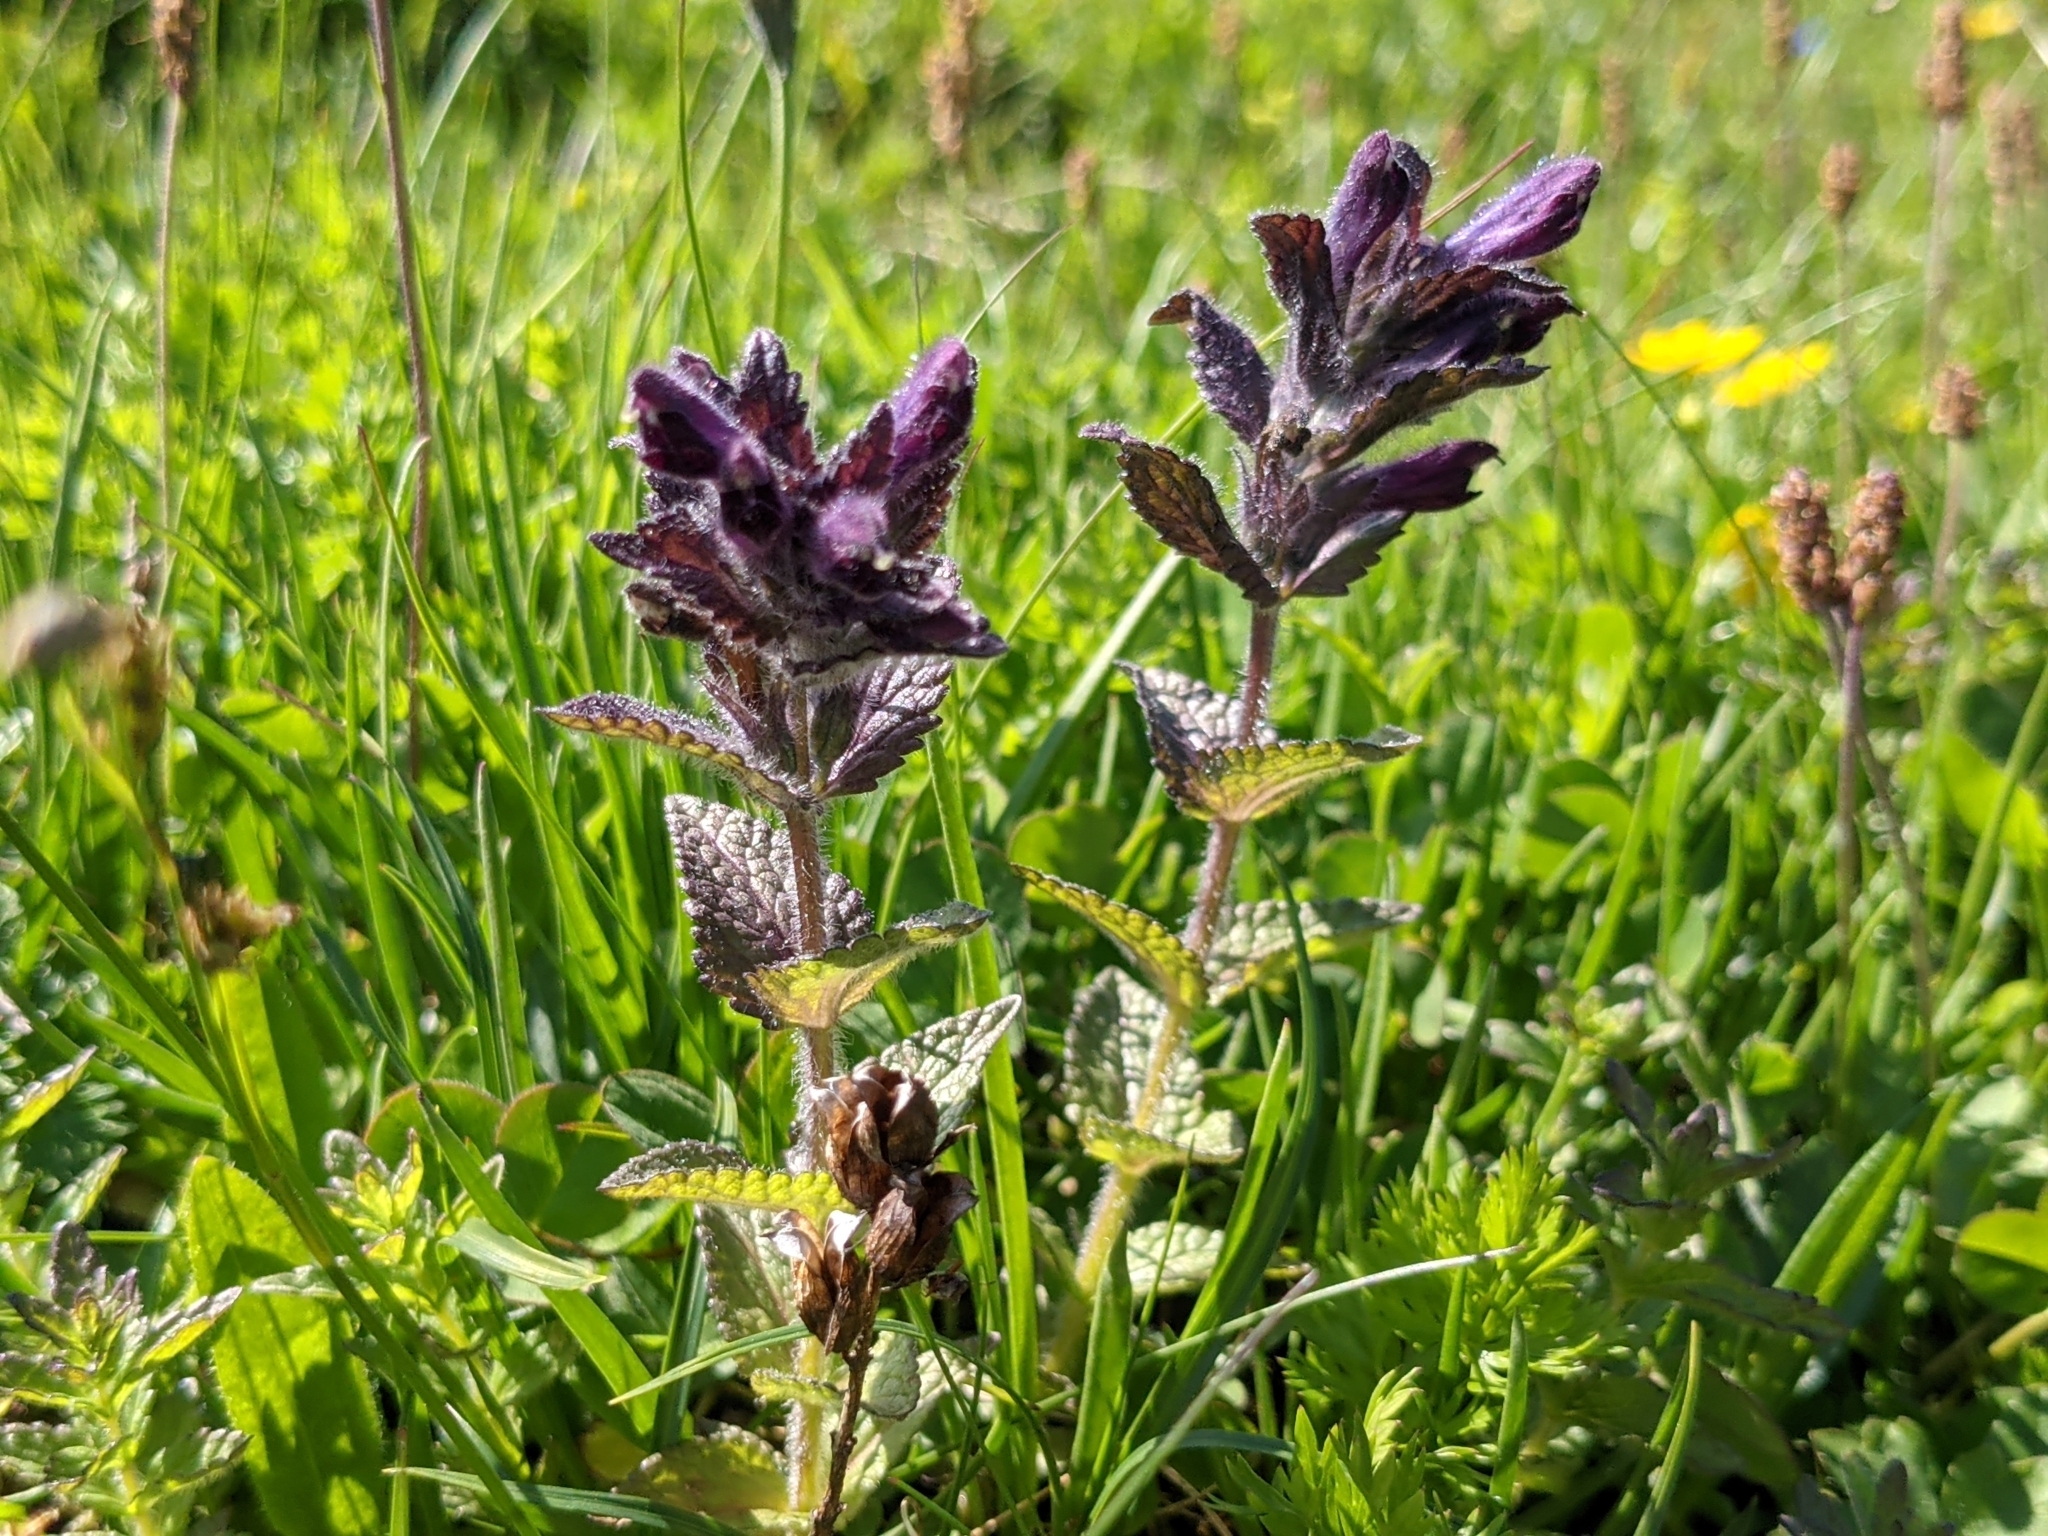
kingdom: Plantae
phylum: Tracheophyta
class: Magnoliopsida
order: Lamiales
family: Orobanchaceae
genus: Bartsia
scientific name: Bartsia alpina
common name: Alpine bartsia
